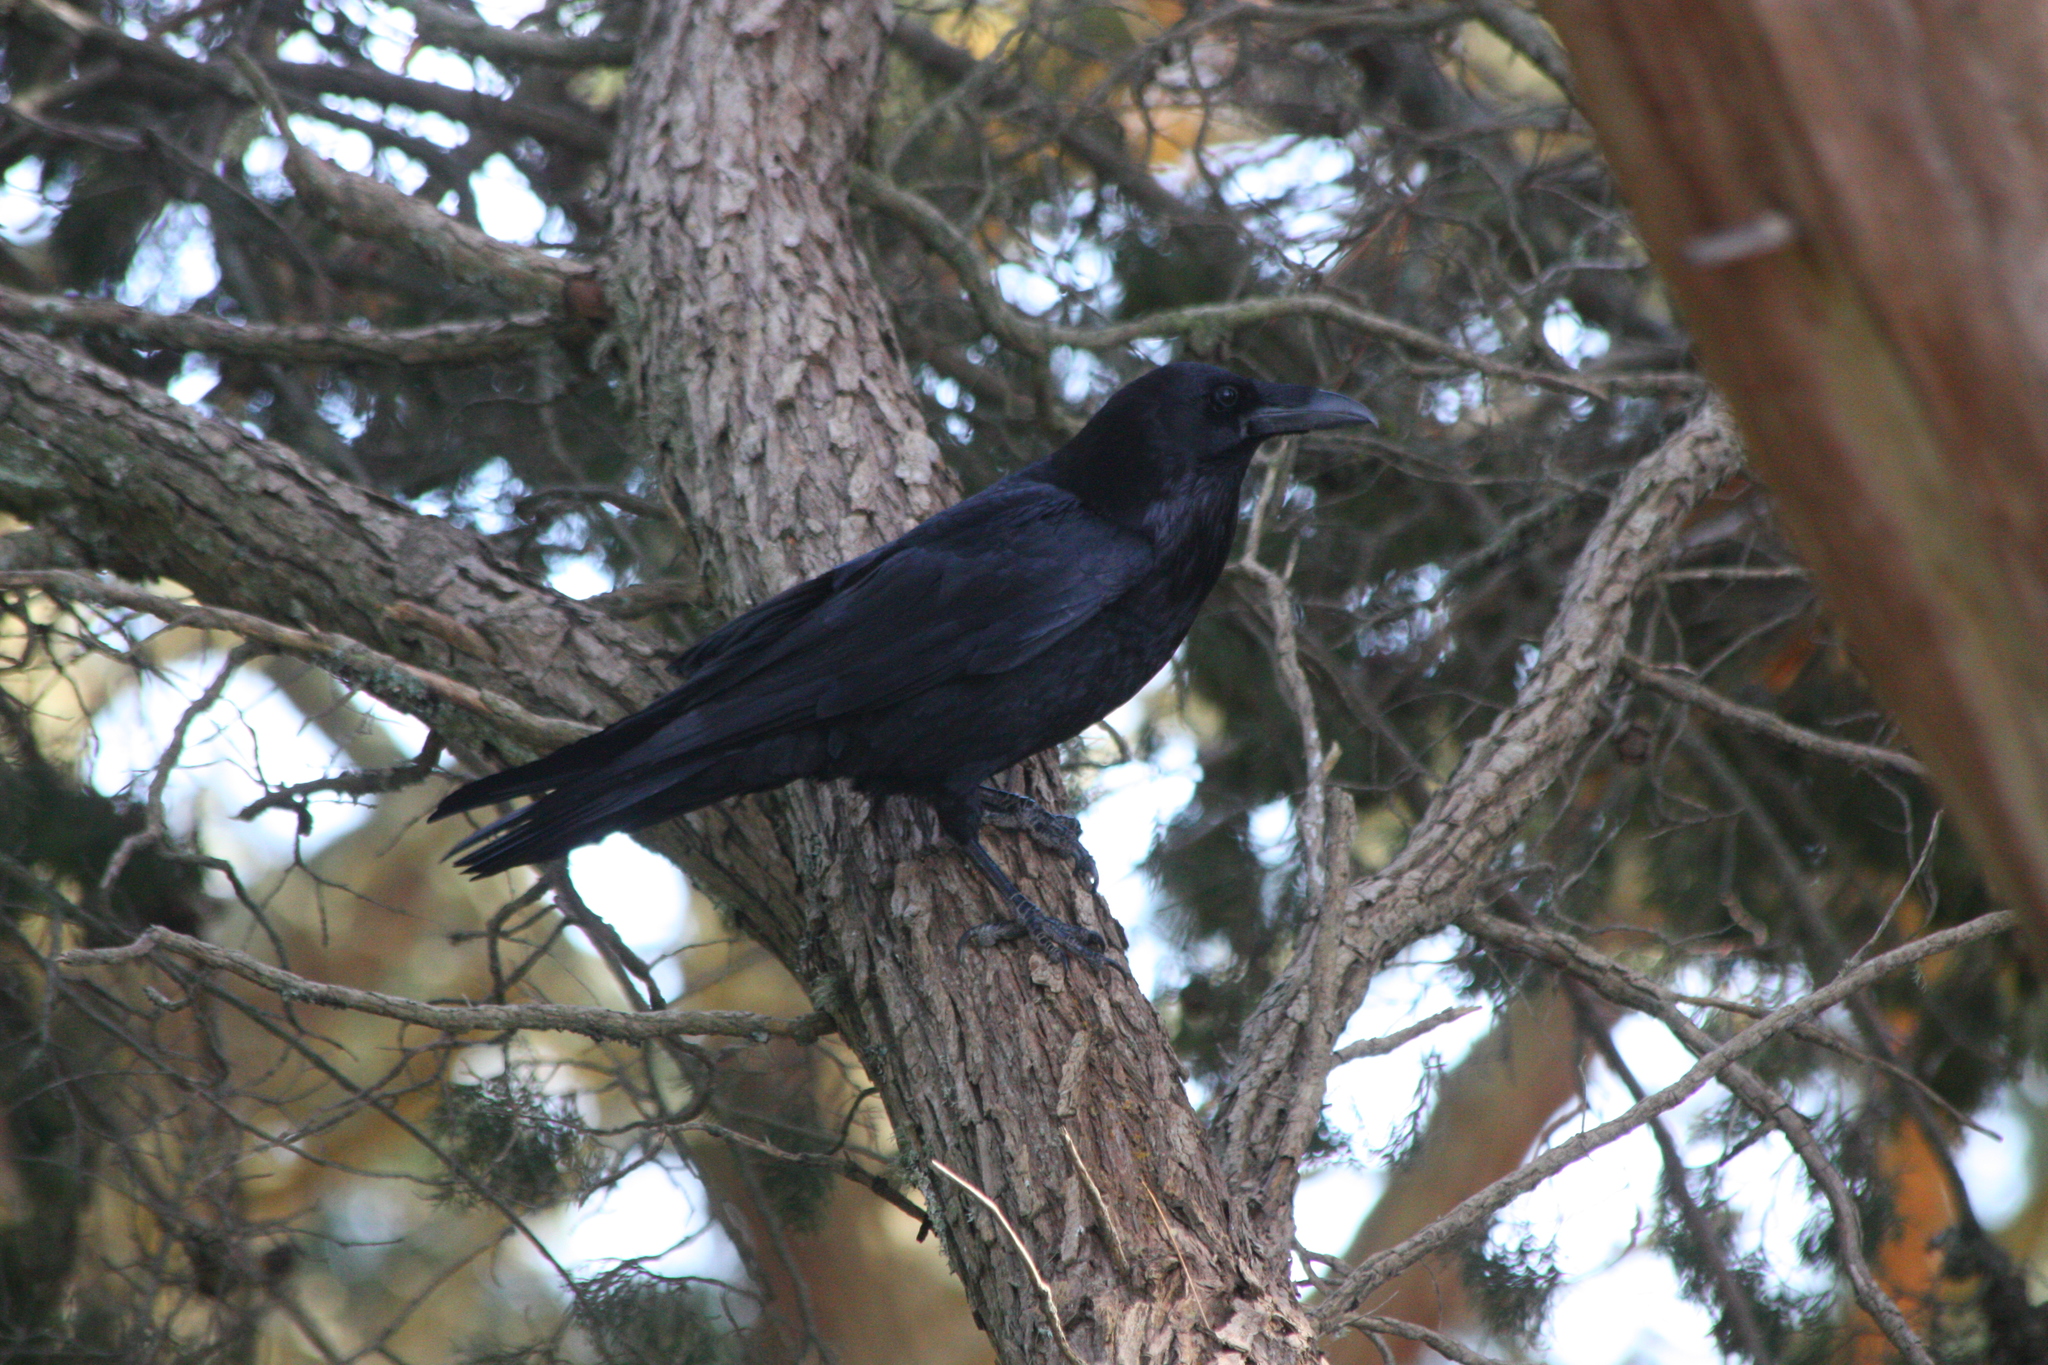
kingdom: Animalia
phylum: Chordata
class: Aves
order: Passeriformes
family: Corvidae
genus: Corvus
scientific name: Corvus corax
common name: Common raven
